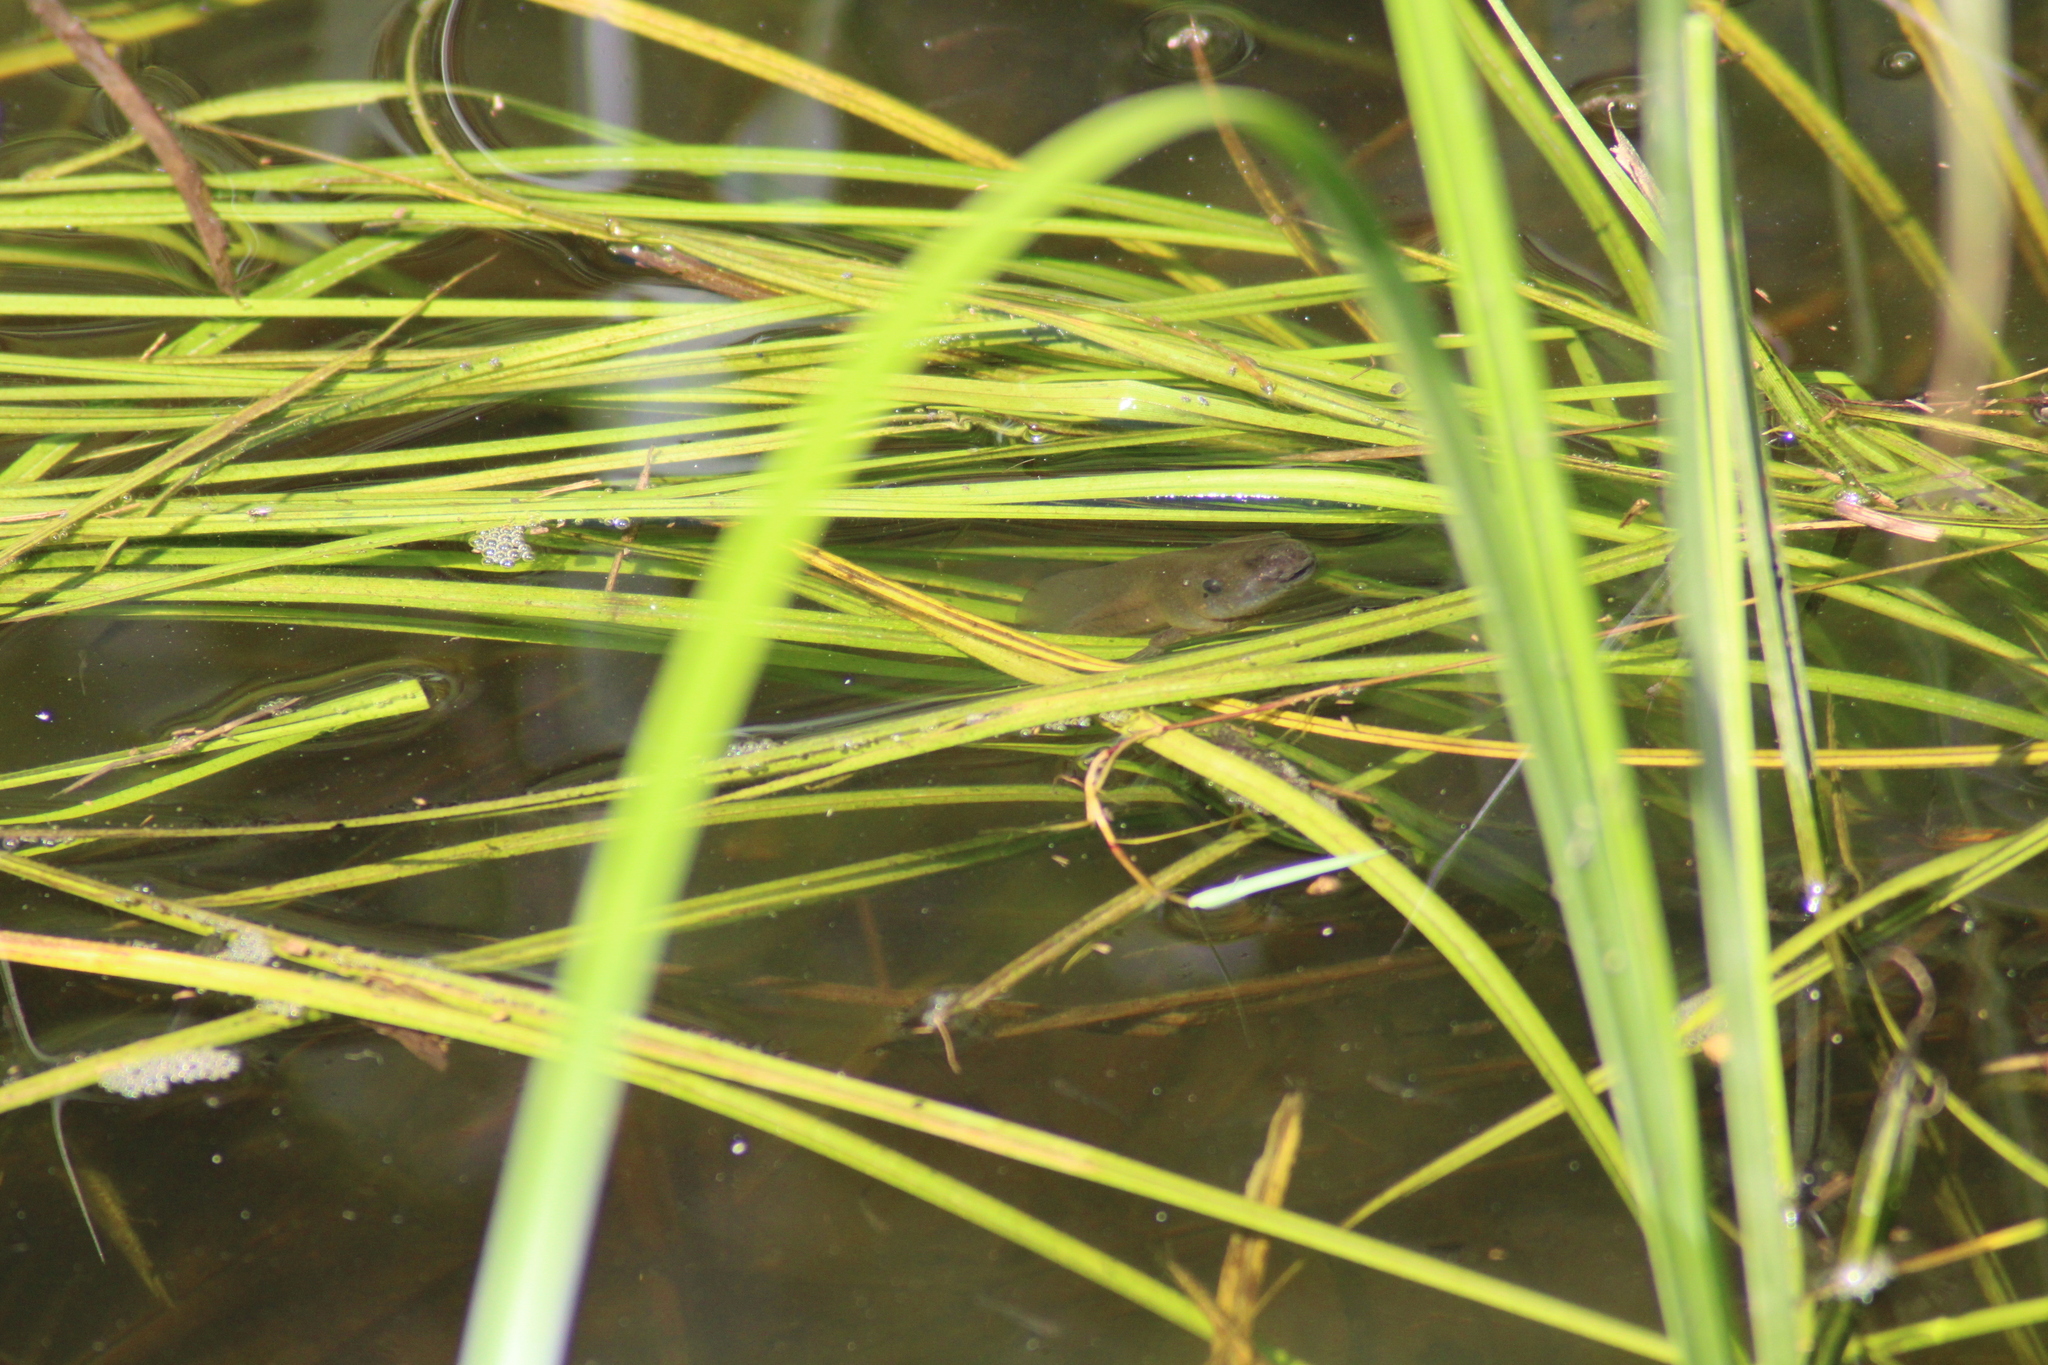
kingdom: Animalia
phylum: Chordata
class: Amphibia
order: Anura
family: Pelobatidae
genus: Pelobates
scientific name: Pelobates fuscus
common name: Common eurasian spadefoot toad
